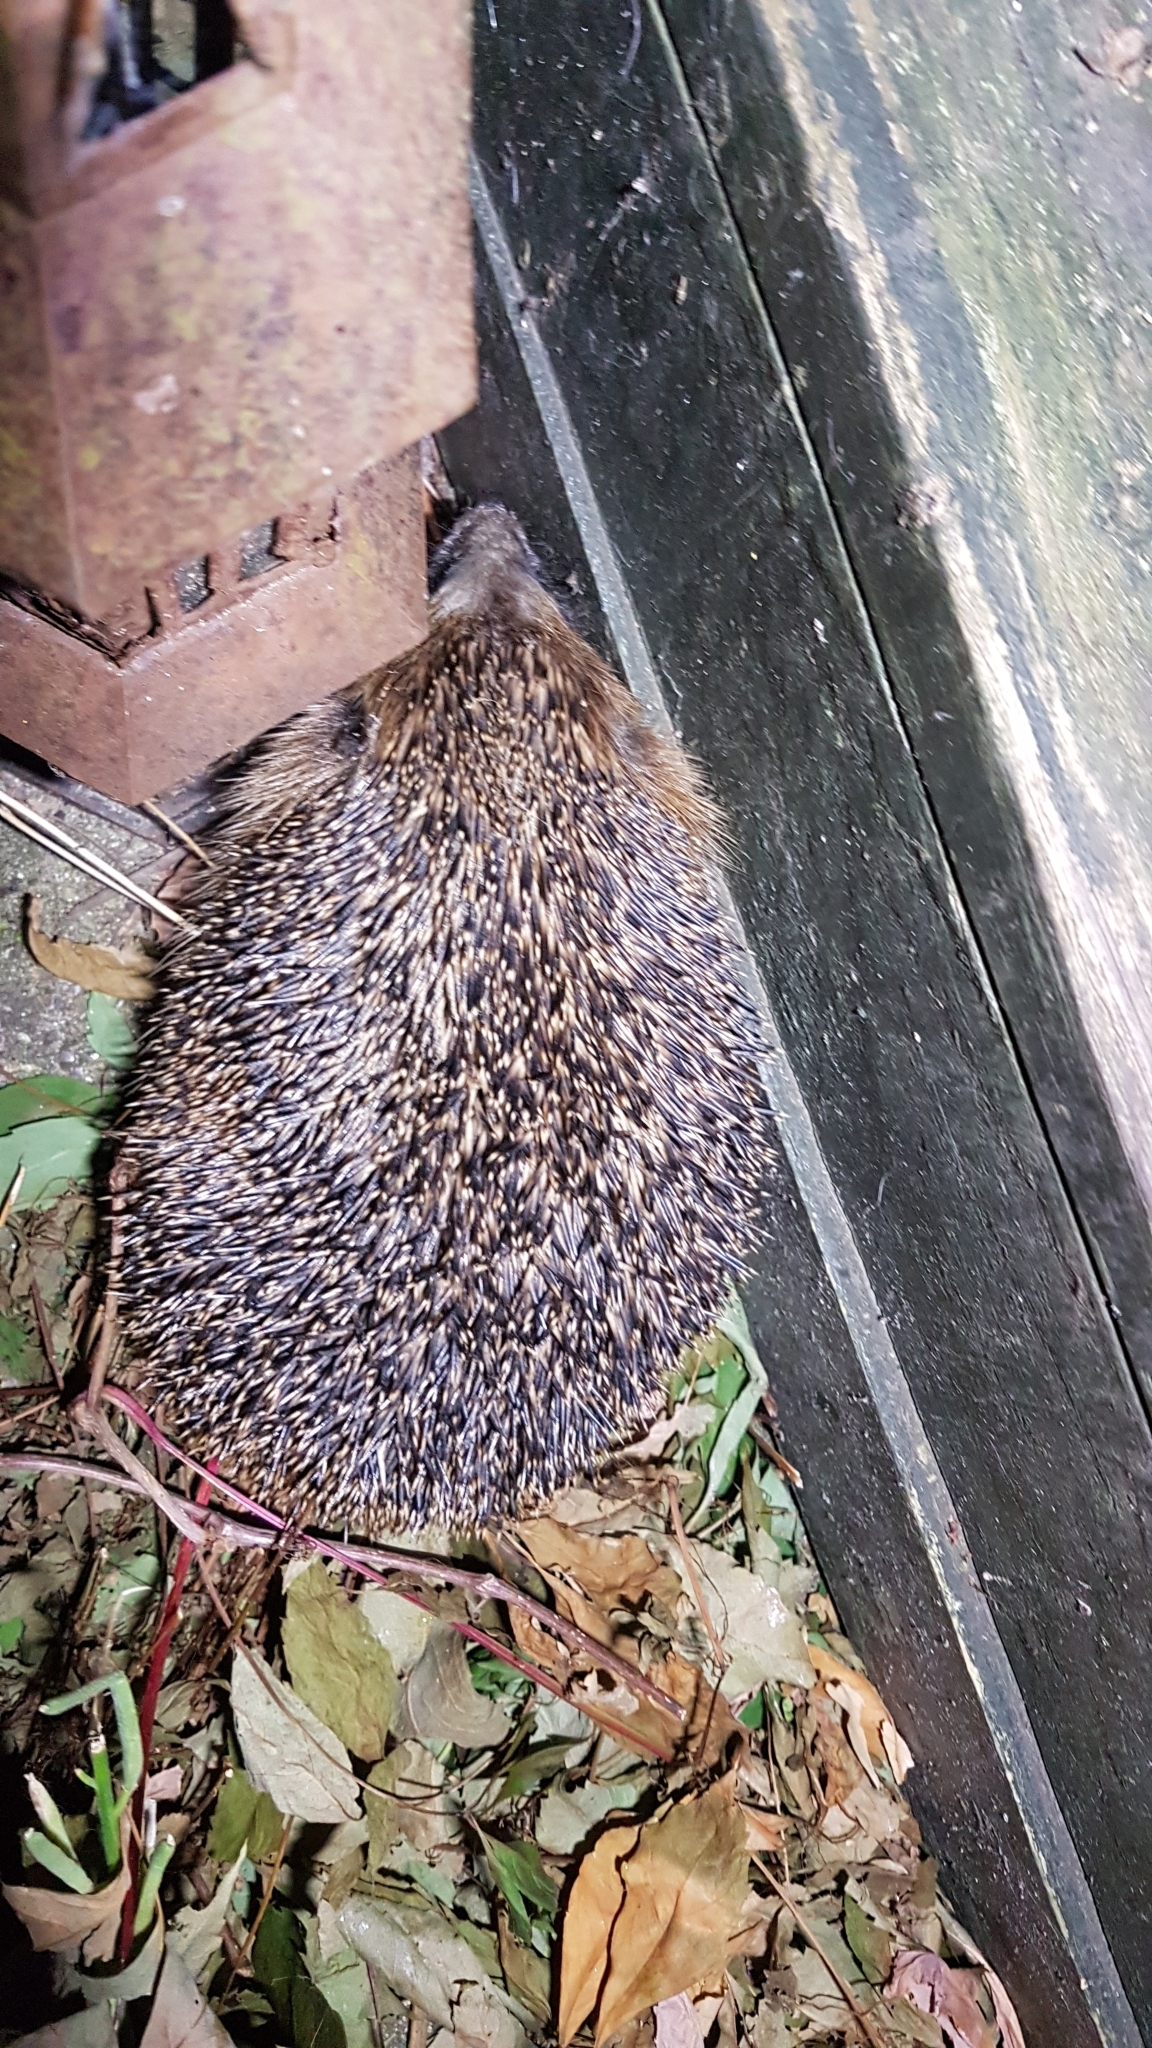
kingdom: Animalia
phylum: Chordata
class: Mammalia
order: Erinaceomorpha
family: Erinaceidae
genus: Erinaceus
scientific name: Erinaceus europaeus
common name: West european hedgehog
